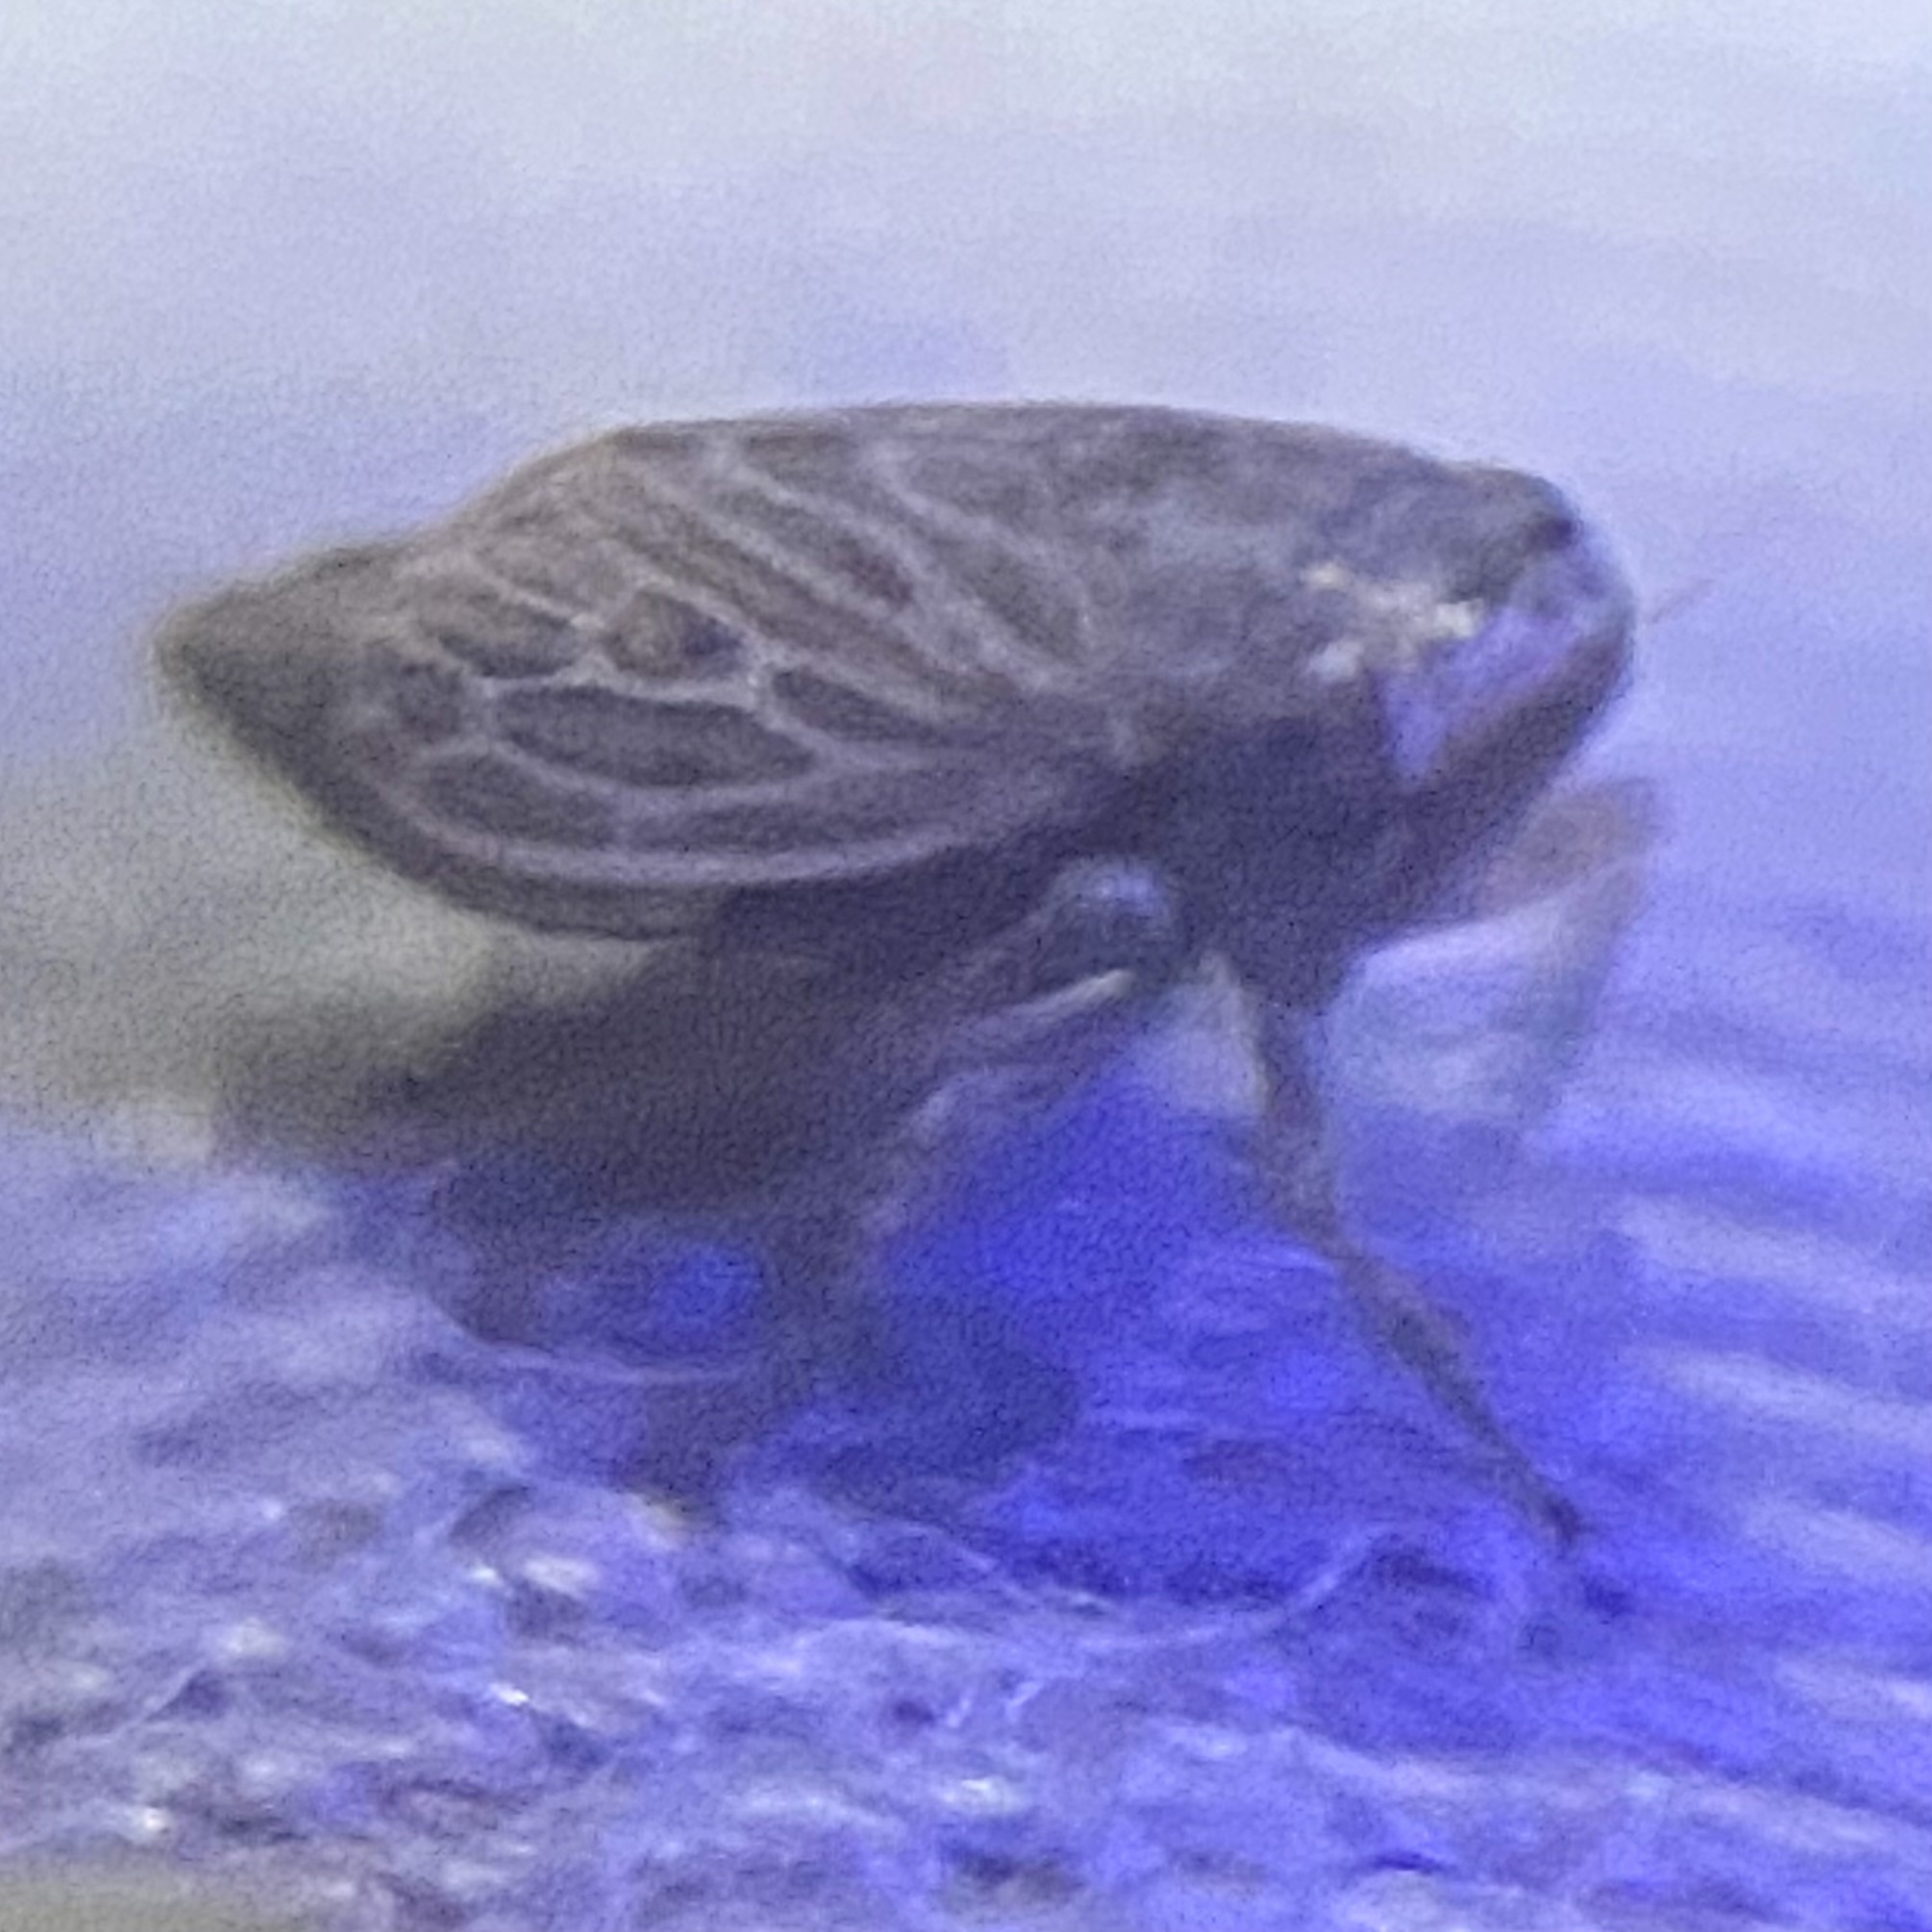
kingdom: Animalia
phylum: Arthropoda
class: Insecta
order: Hemiptera
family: Cicadellidae
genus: Extrusanus
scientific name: Extrusanus ovatus
